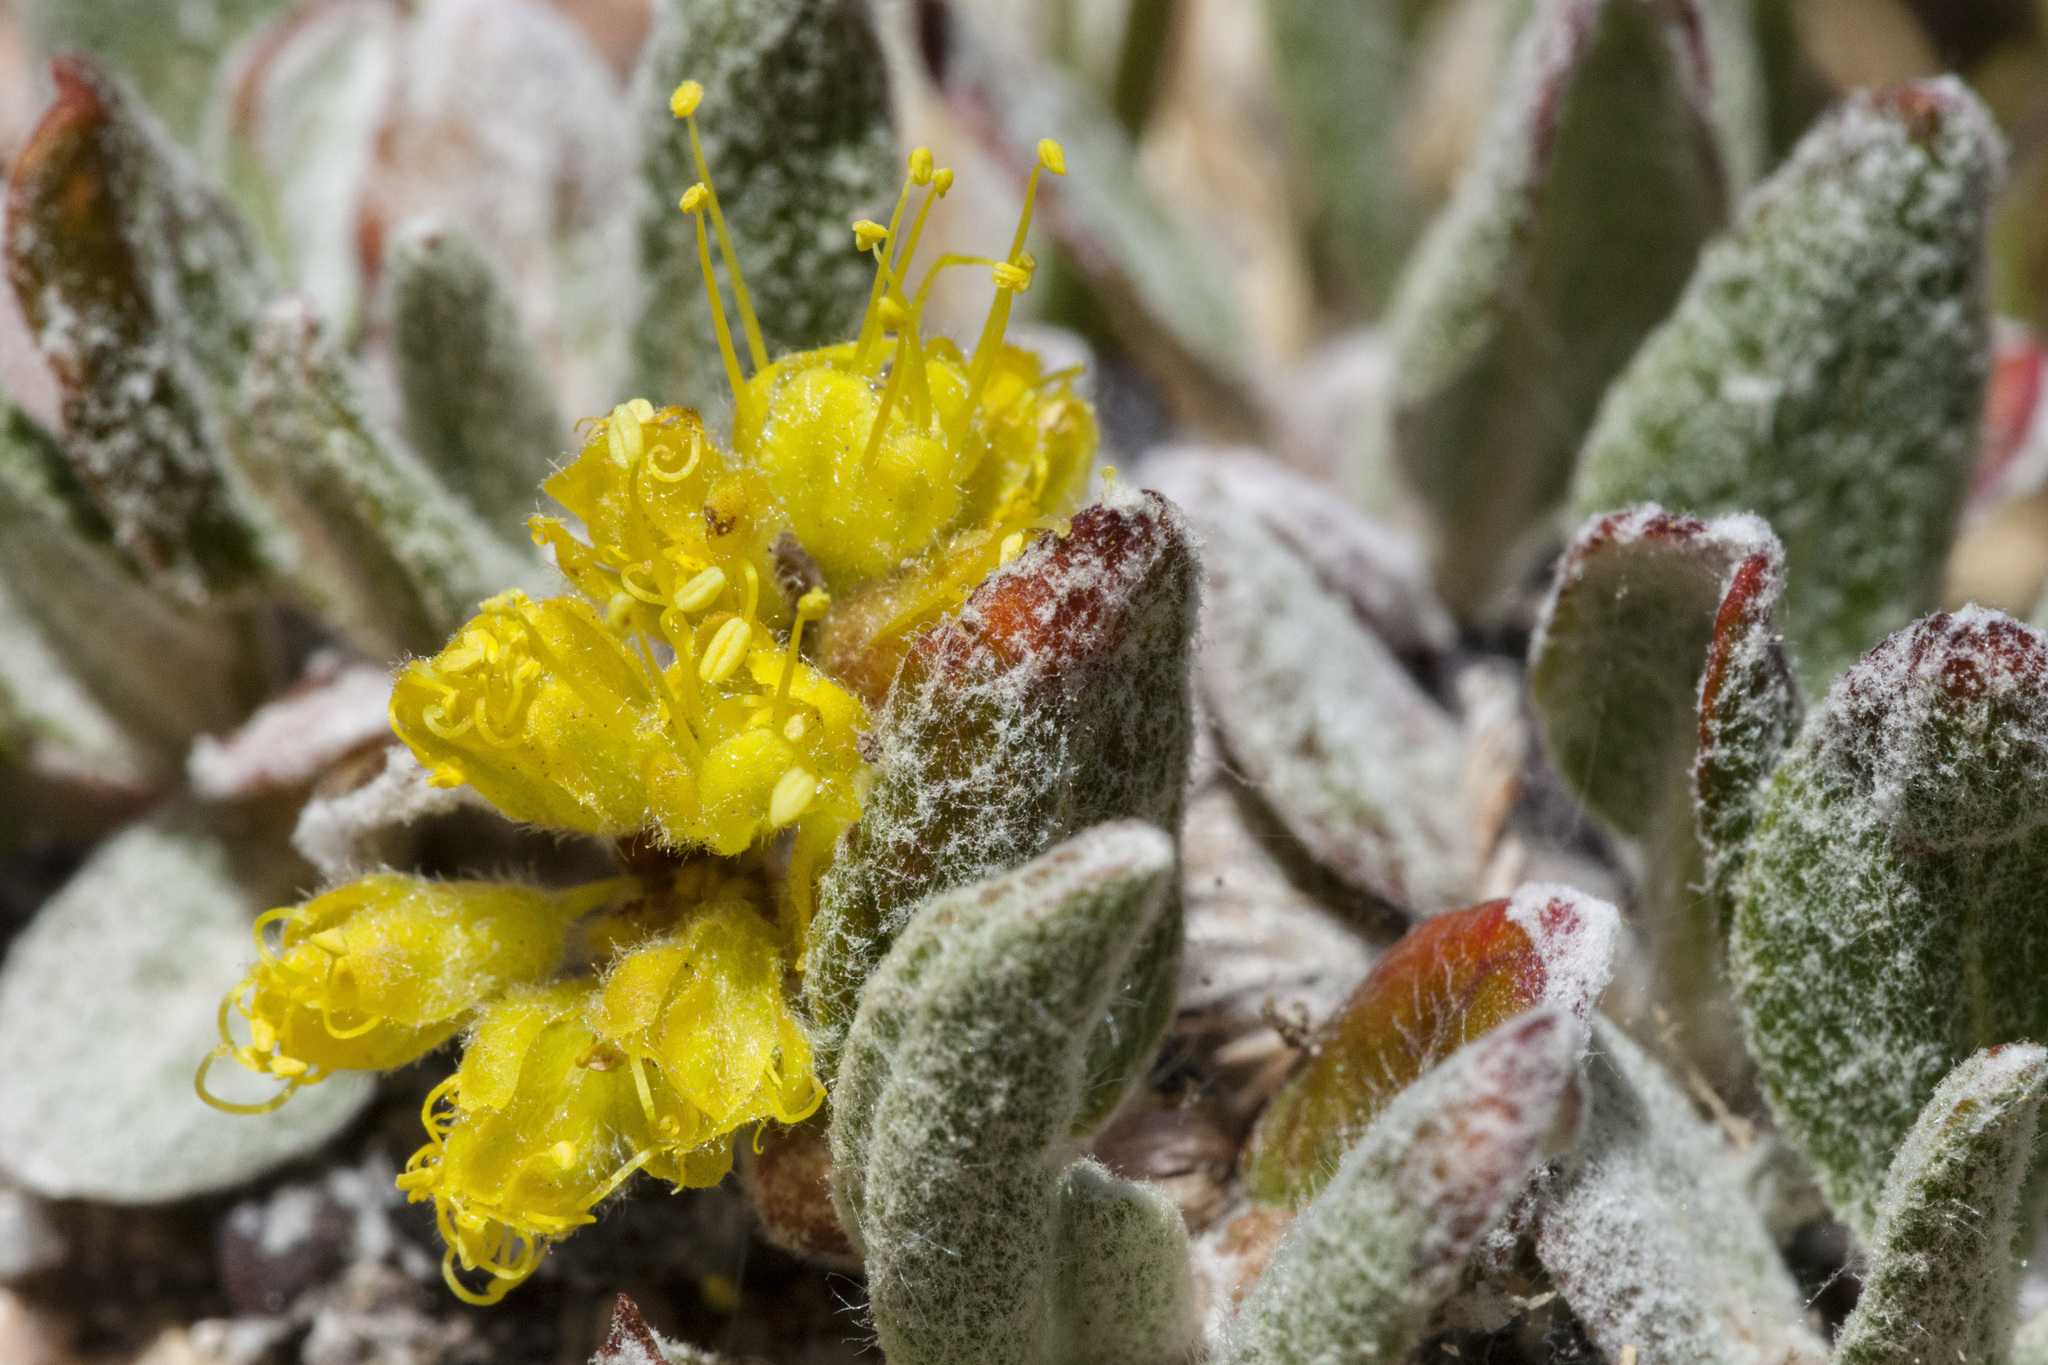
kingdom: Plantae
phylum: Tracheophyta
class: Magnoliopsida
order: Caryophyllales
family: Polygonaceae
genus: Eriogonum
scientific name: Eriogonum arcuatum
